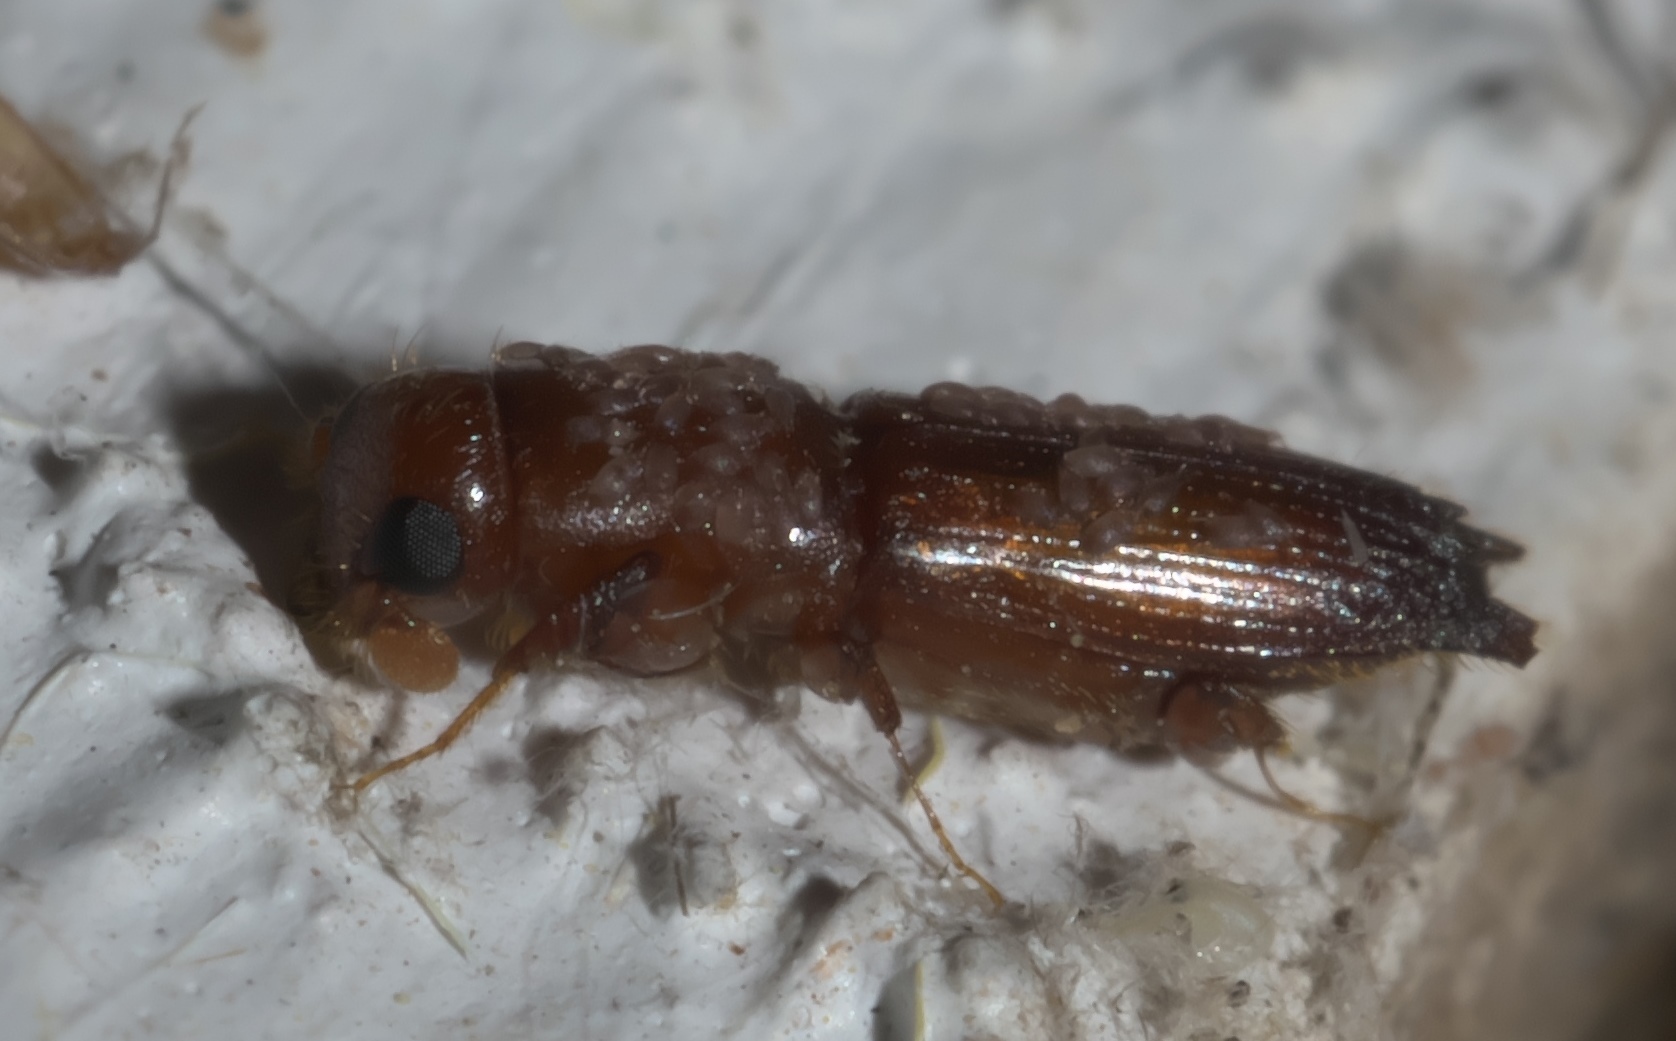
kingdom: Animalia
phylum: Arthropoda
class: Insecta
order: Coleoptera
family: Curculionidae
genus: Euplatypus
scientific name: Euplatypus compositus
